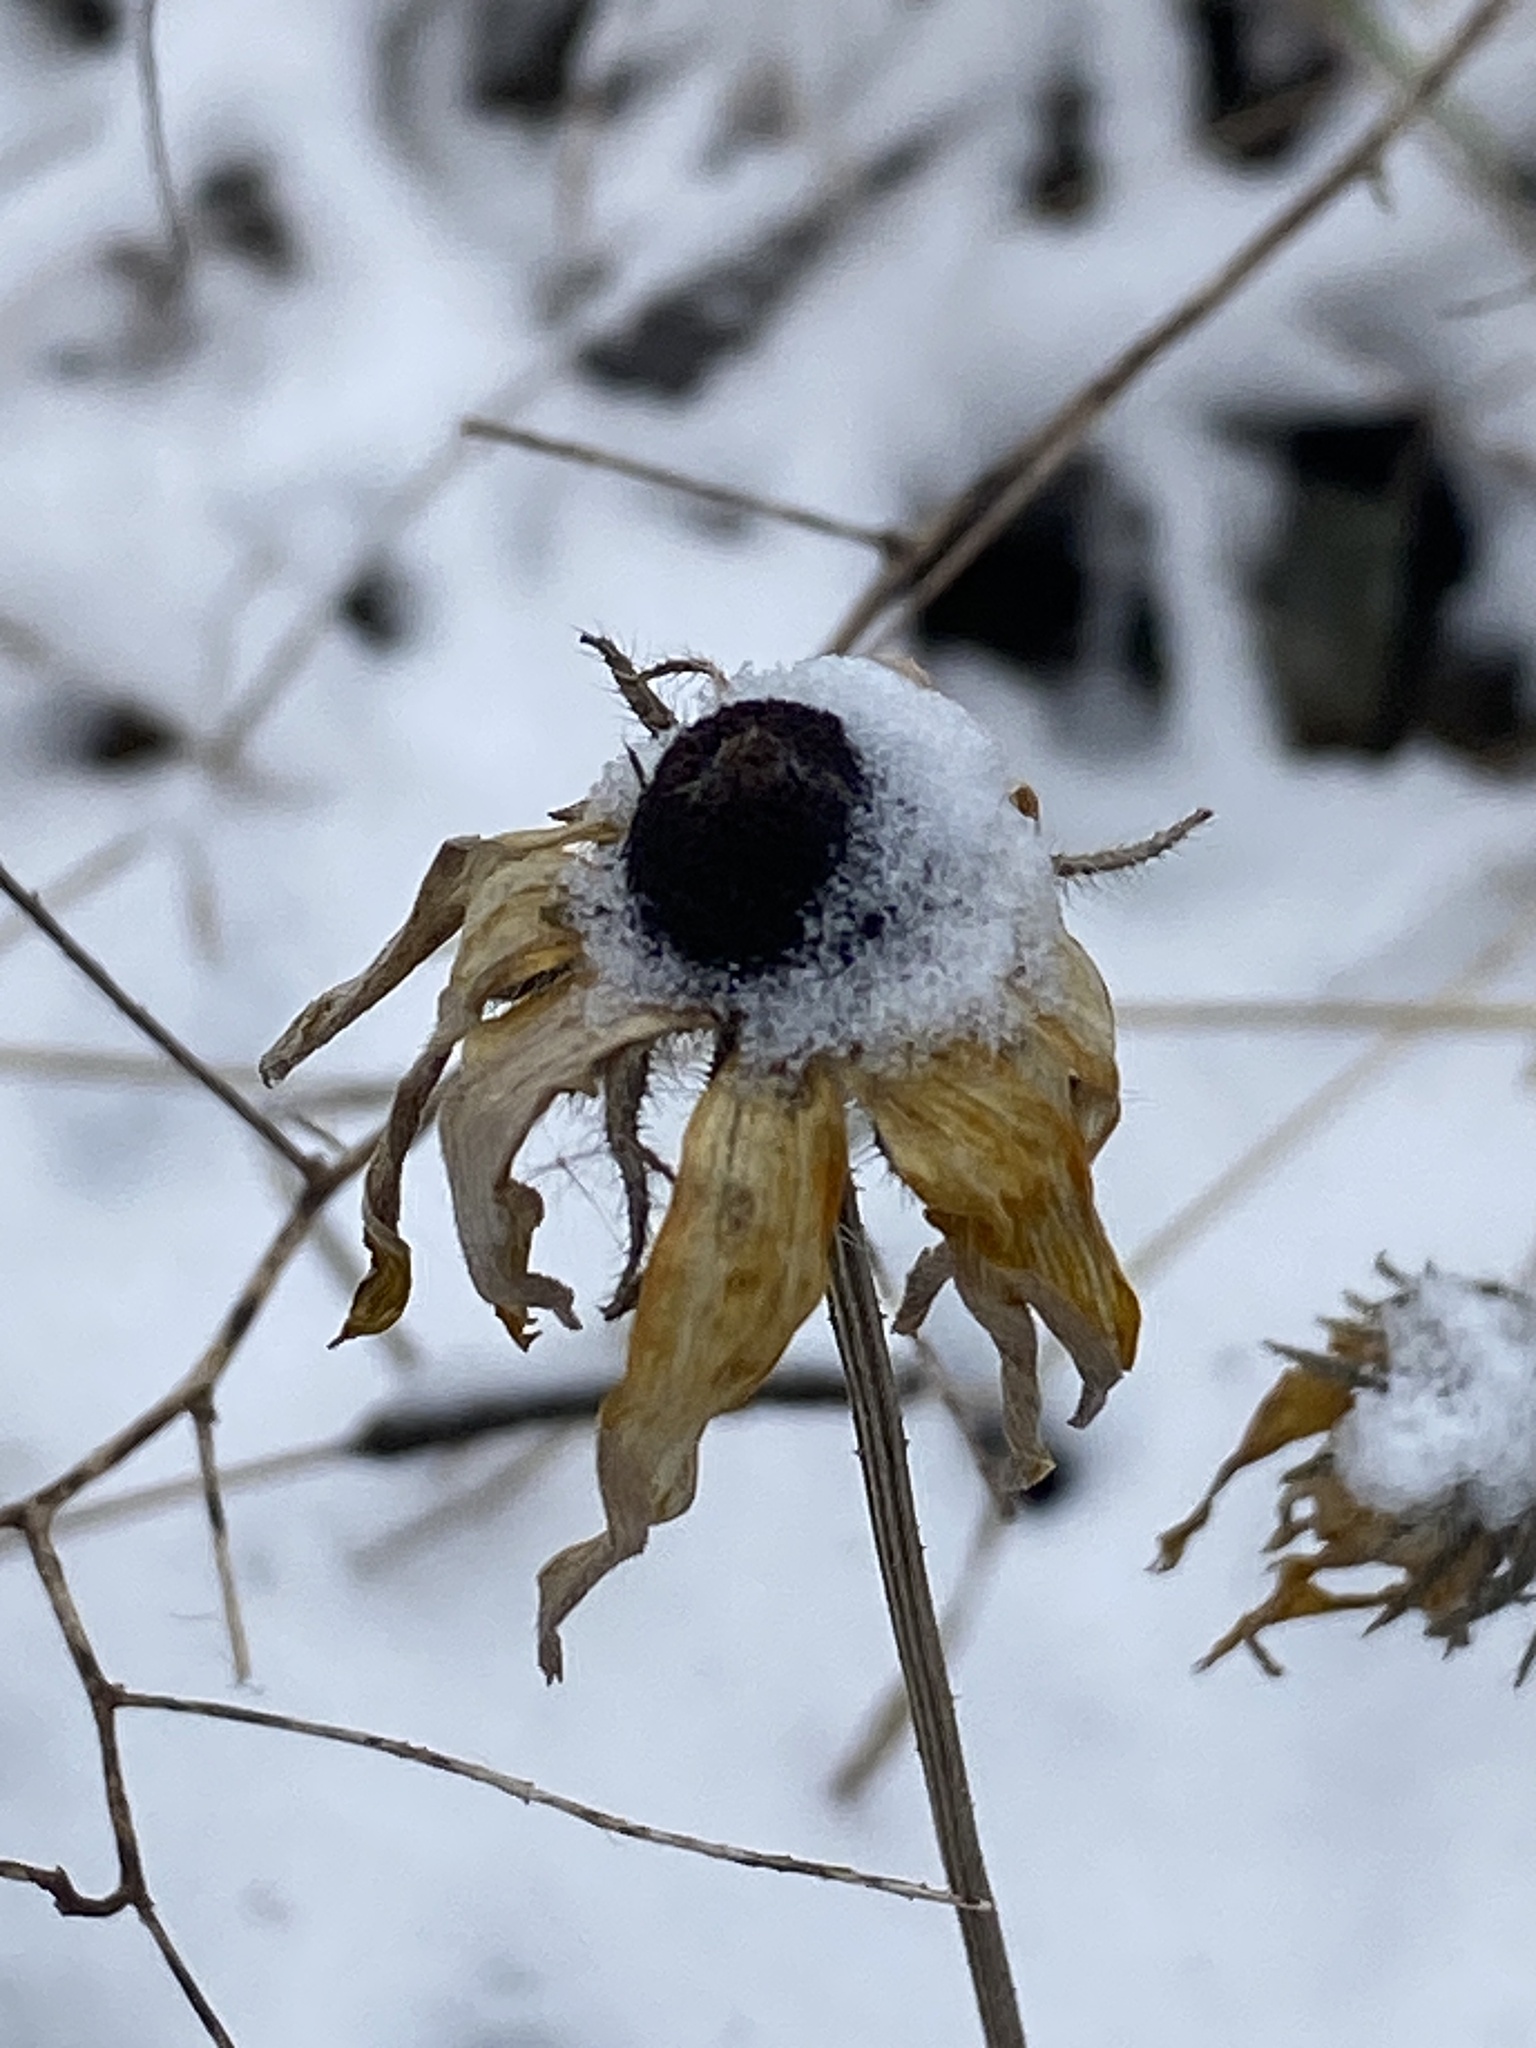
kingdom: Plantae
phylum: Tracheophyta
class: Magnoliopsida
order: Asterales
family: Asteraceae
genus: Rudbeckia
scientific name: Rudbeckia hirta
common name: Black-eyed-susan
